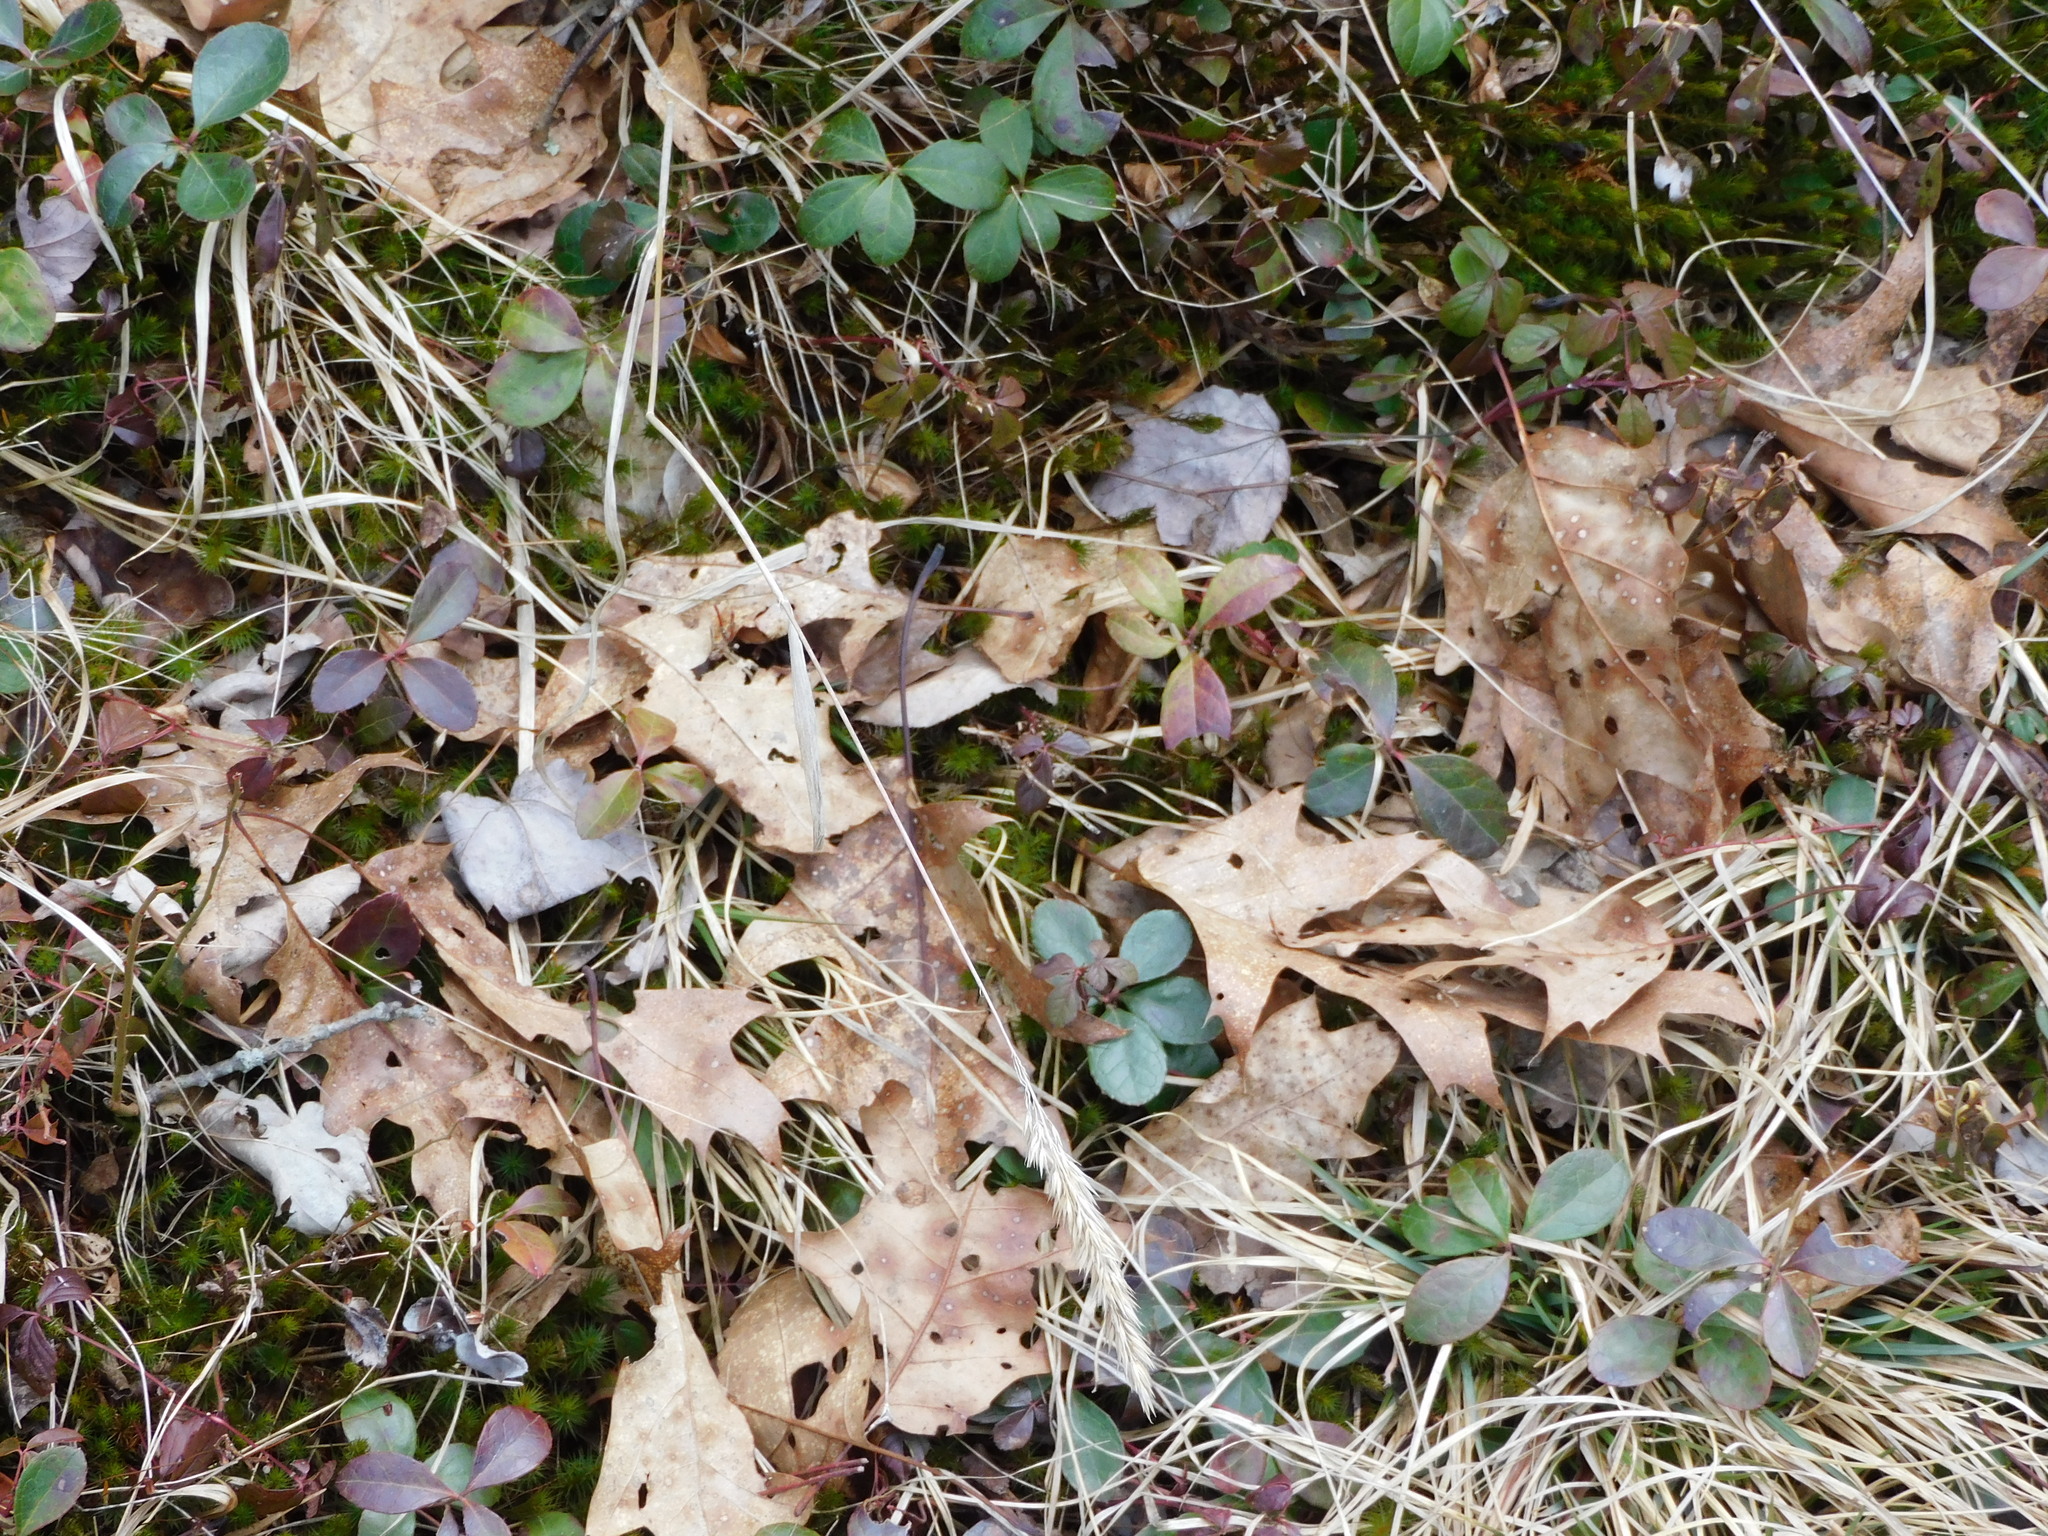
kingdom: Plantae
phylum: Tracheophyta
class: Magnoliopsida
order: Ericales
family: Ericaceae
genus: Gaultheria
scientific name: Gaultheria procumbens
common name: Checkerberry
